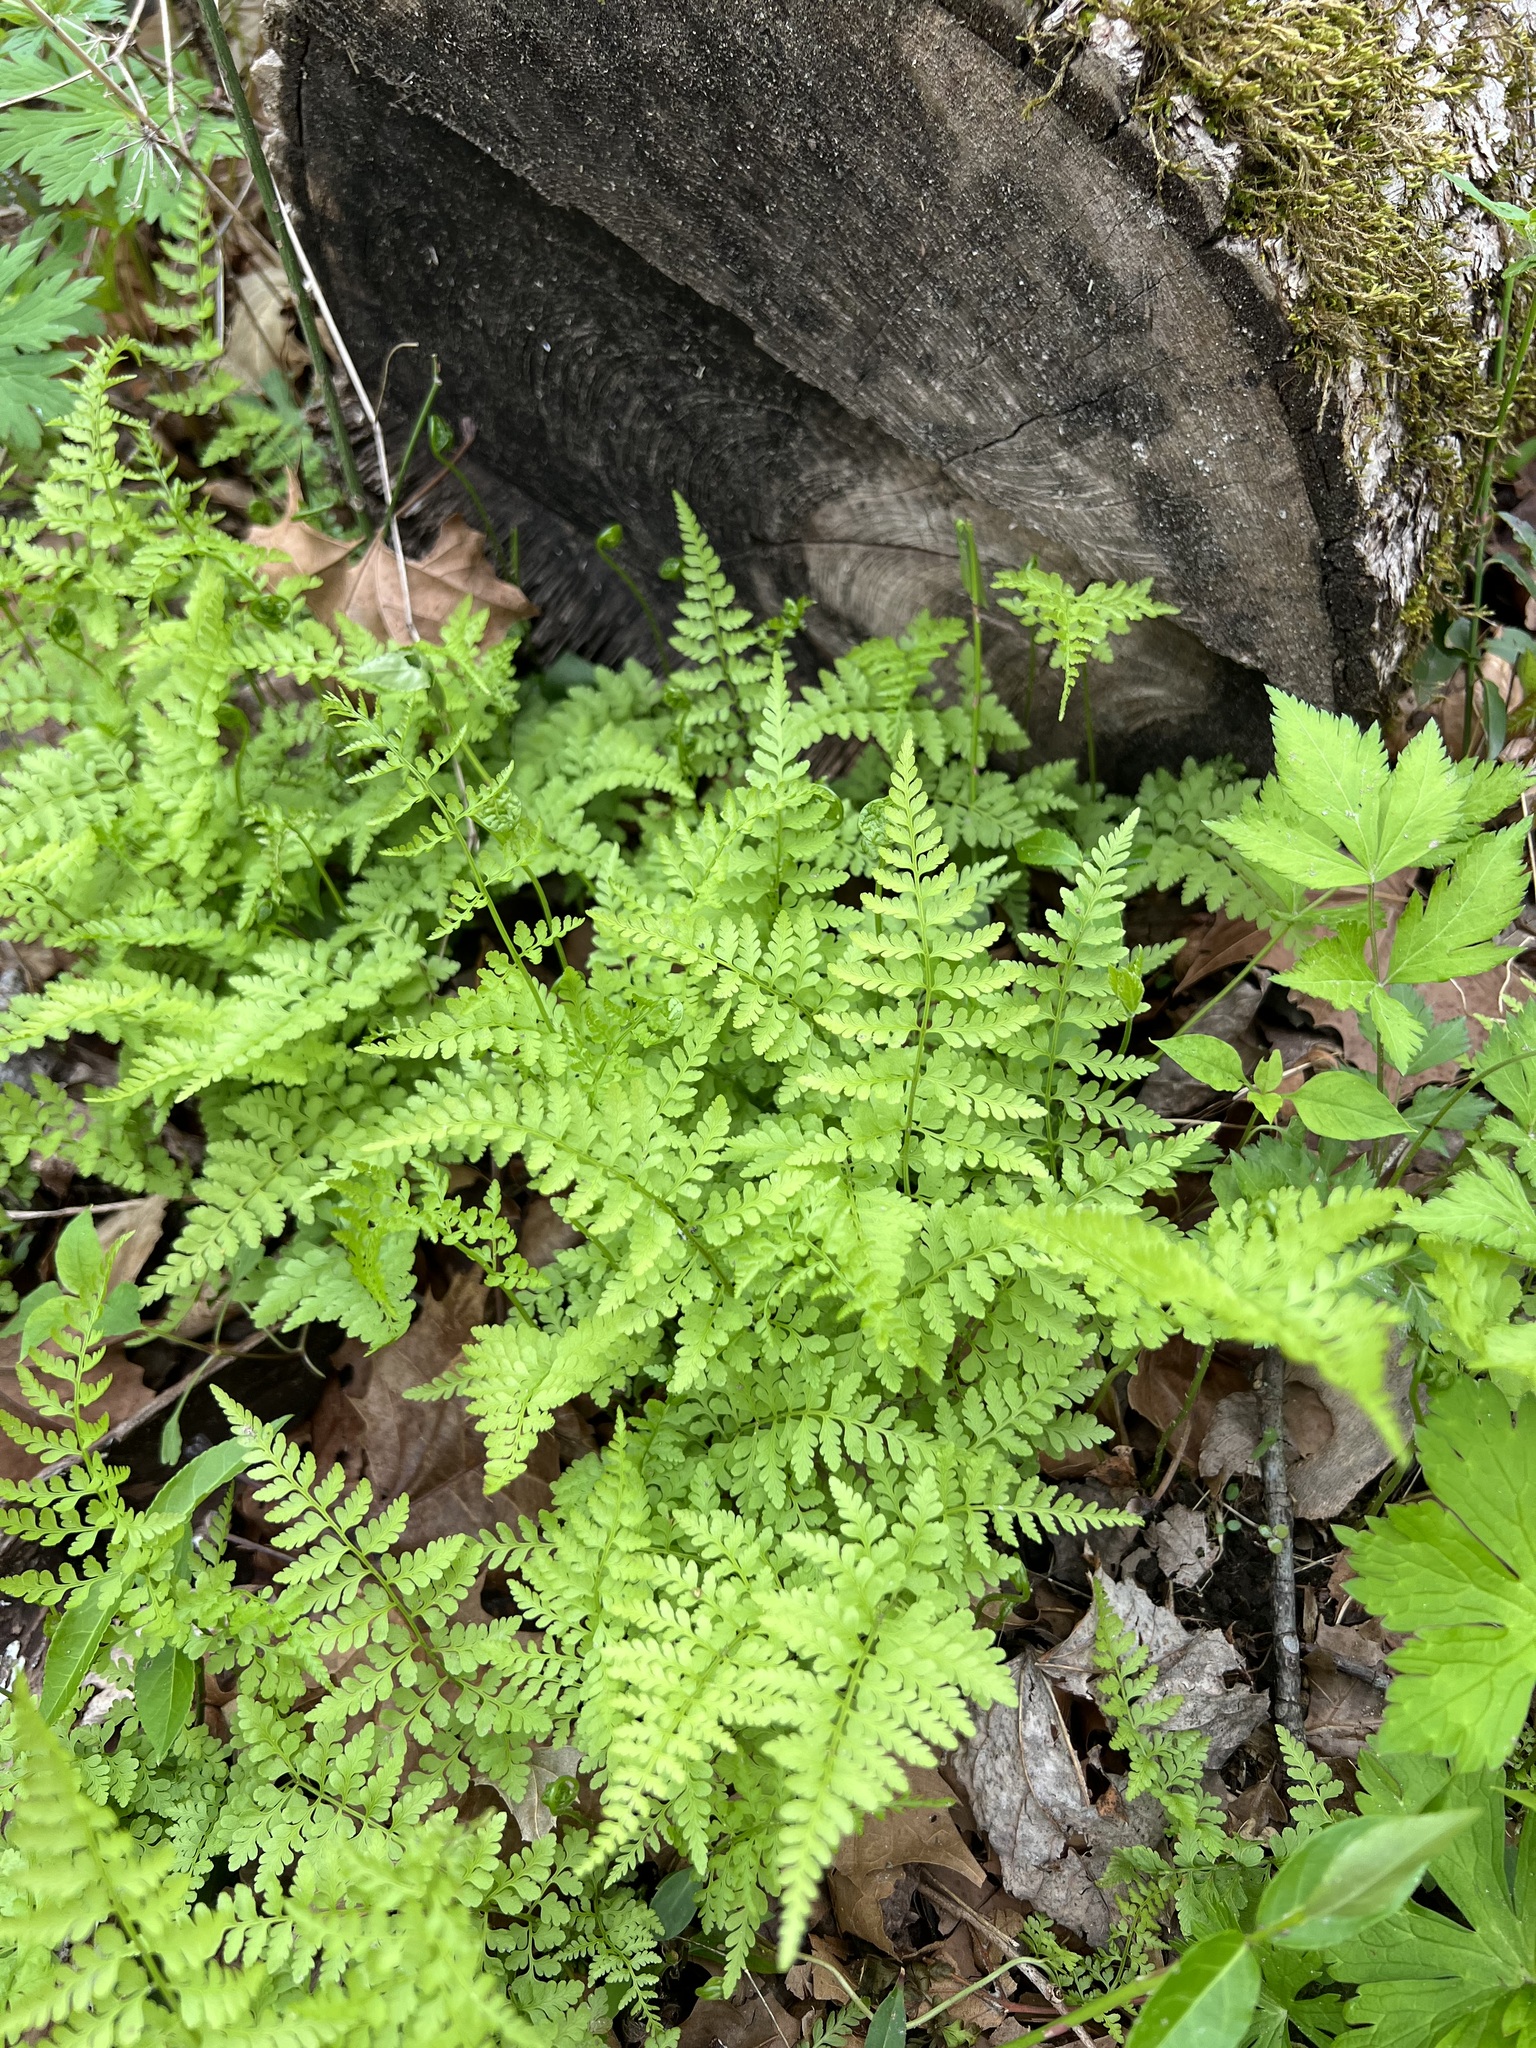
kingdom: Plantae
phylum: Tracheophyta
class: Polypodiopsida
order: Polypodiales
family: Cystopteridaceae
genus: Cystopteris
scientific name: Cystopteris protrusa
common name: Lowland brittle fern
